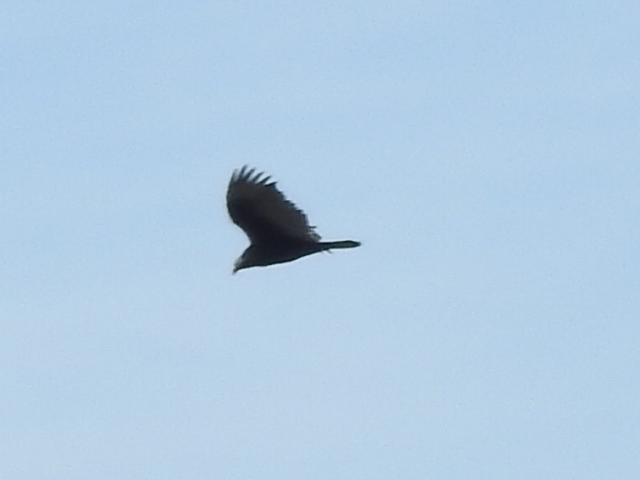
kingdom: Animalia
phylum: Chordata
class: Aves
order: Accipitriformes
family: Cathartidae
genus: Cathartes
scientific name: Cathartes aura
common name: Turkey vulture
